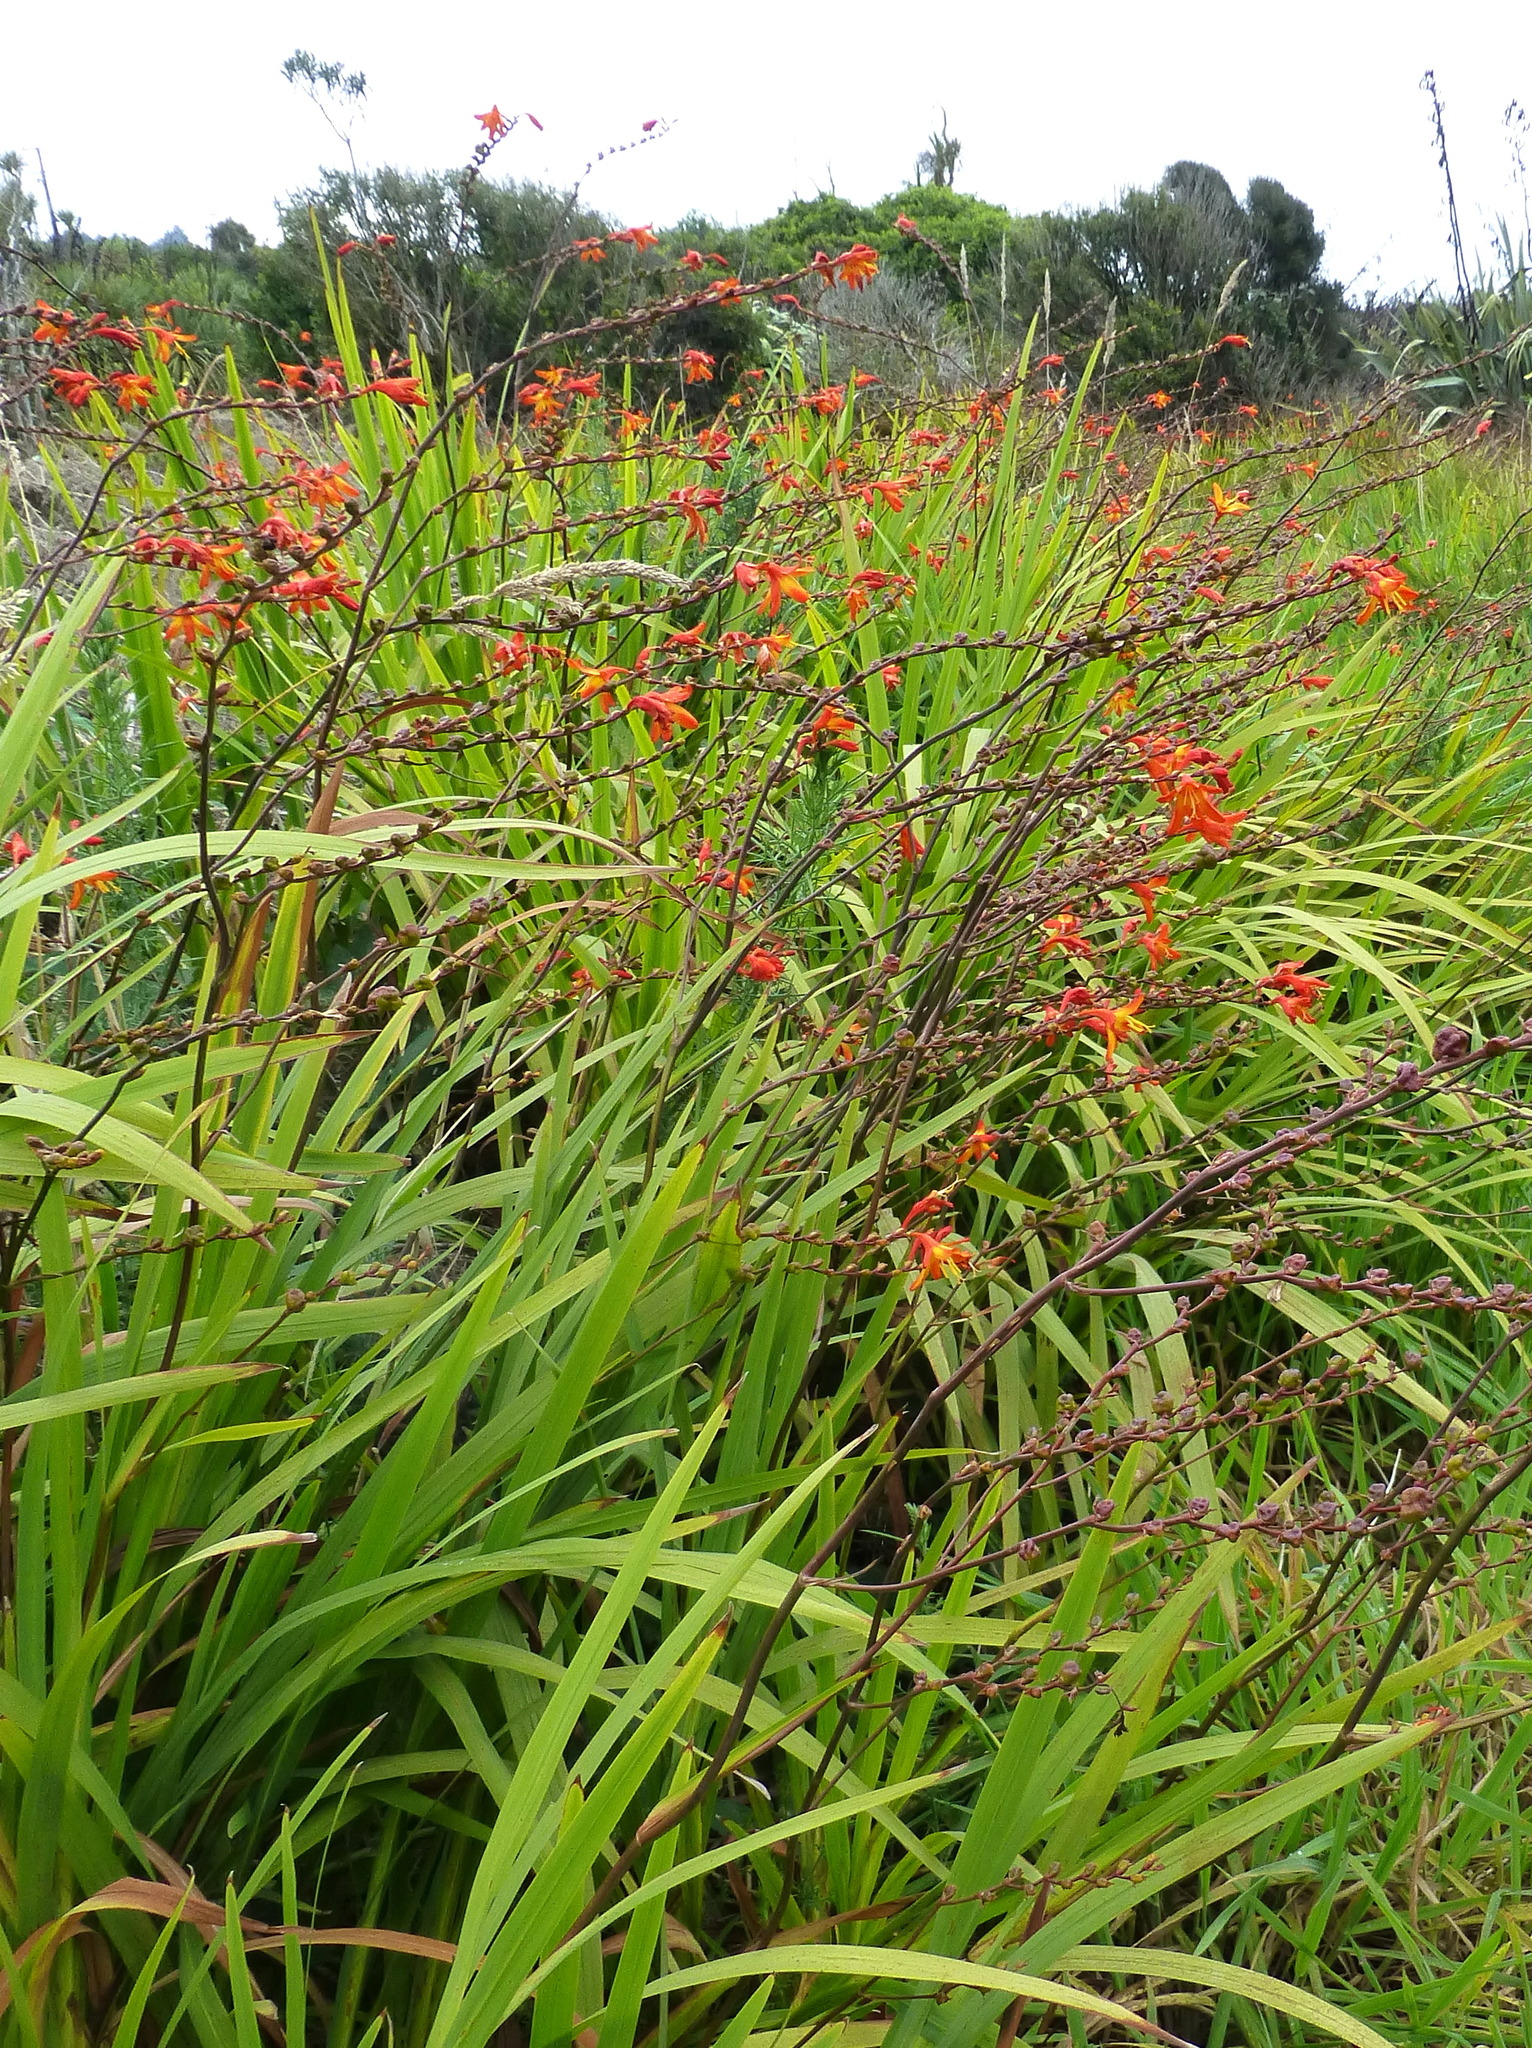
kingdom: Plantae
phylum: Tracheophyta
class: Liliopsida
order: Asparagales
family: Iridaceae
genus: Crocosmia
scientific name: Crocosmia crocosmiiflora
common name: Montbretia
